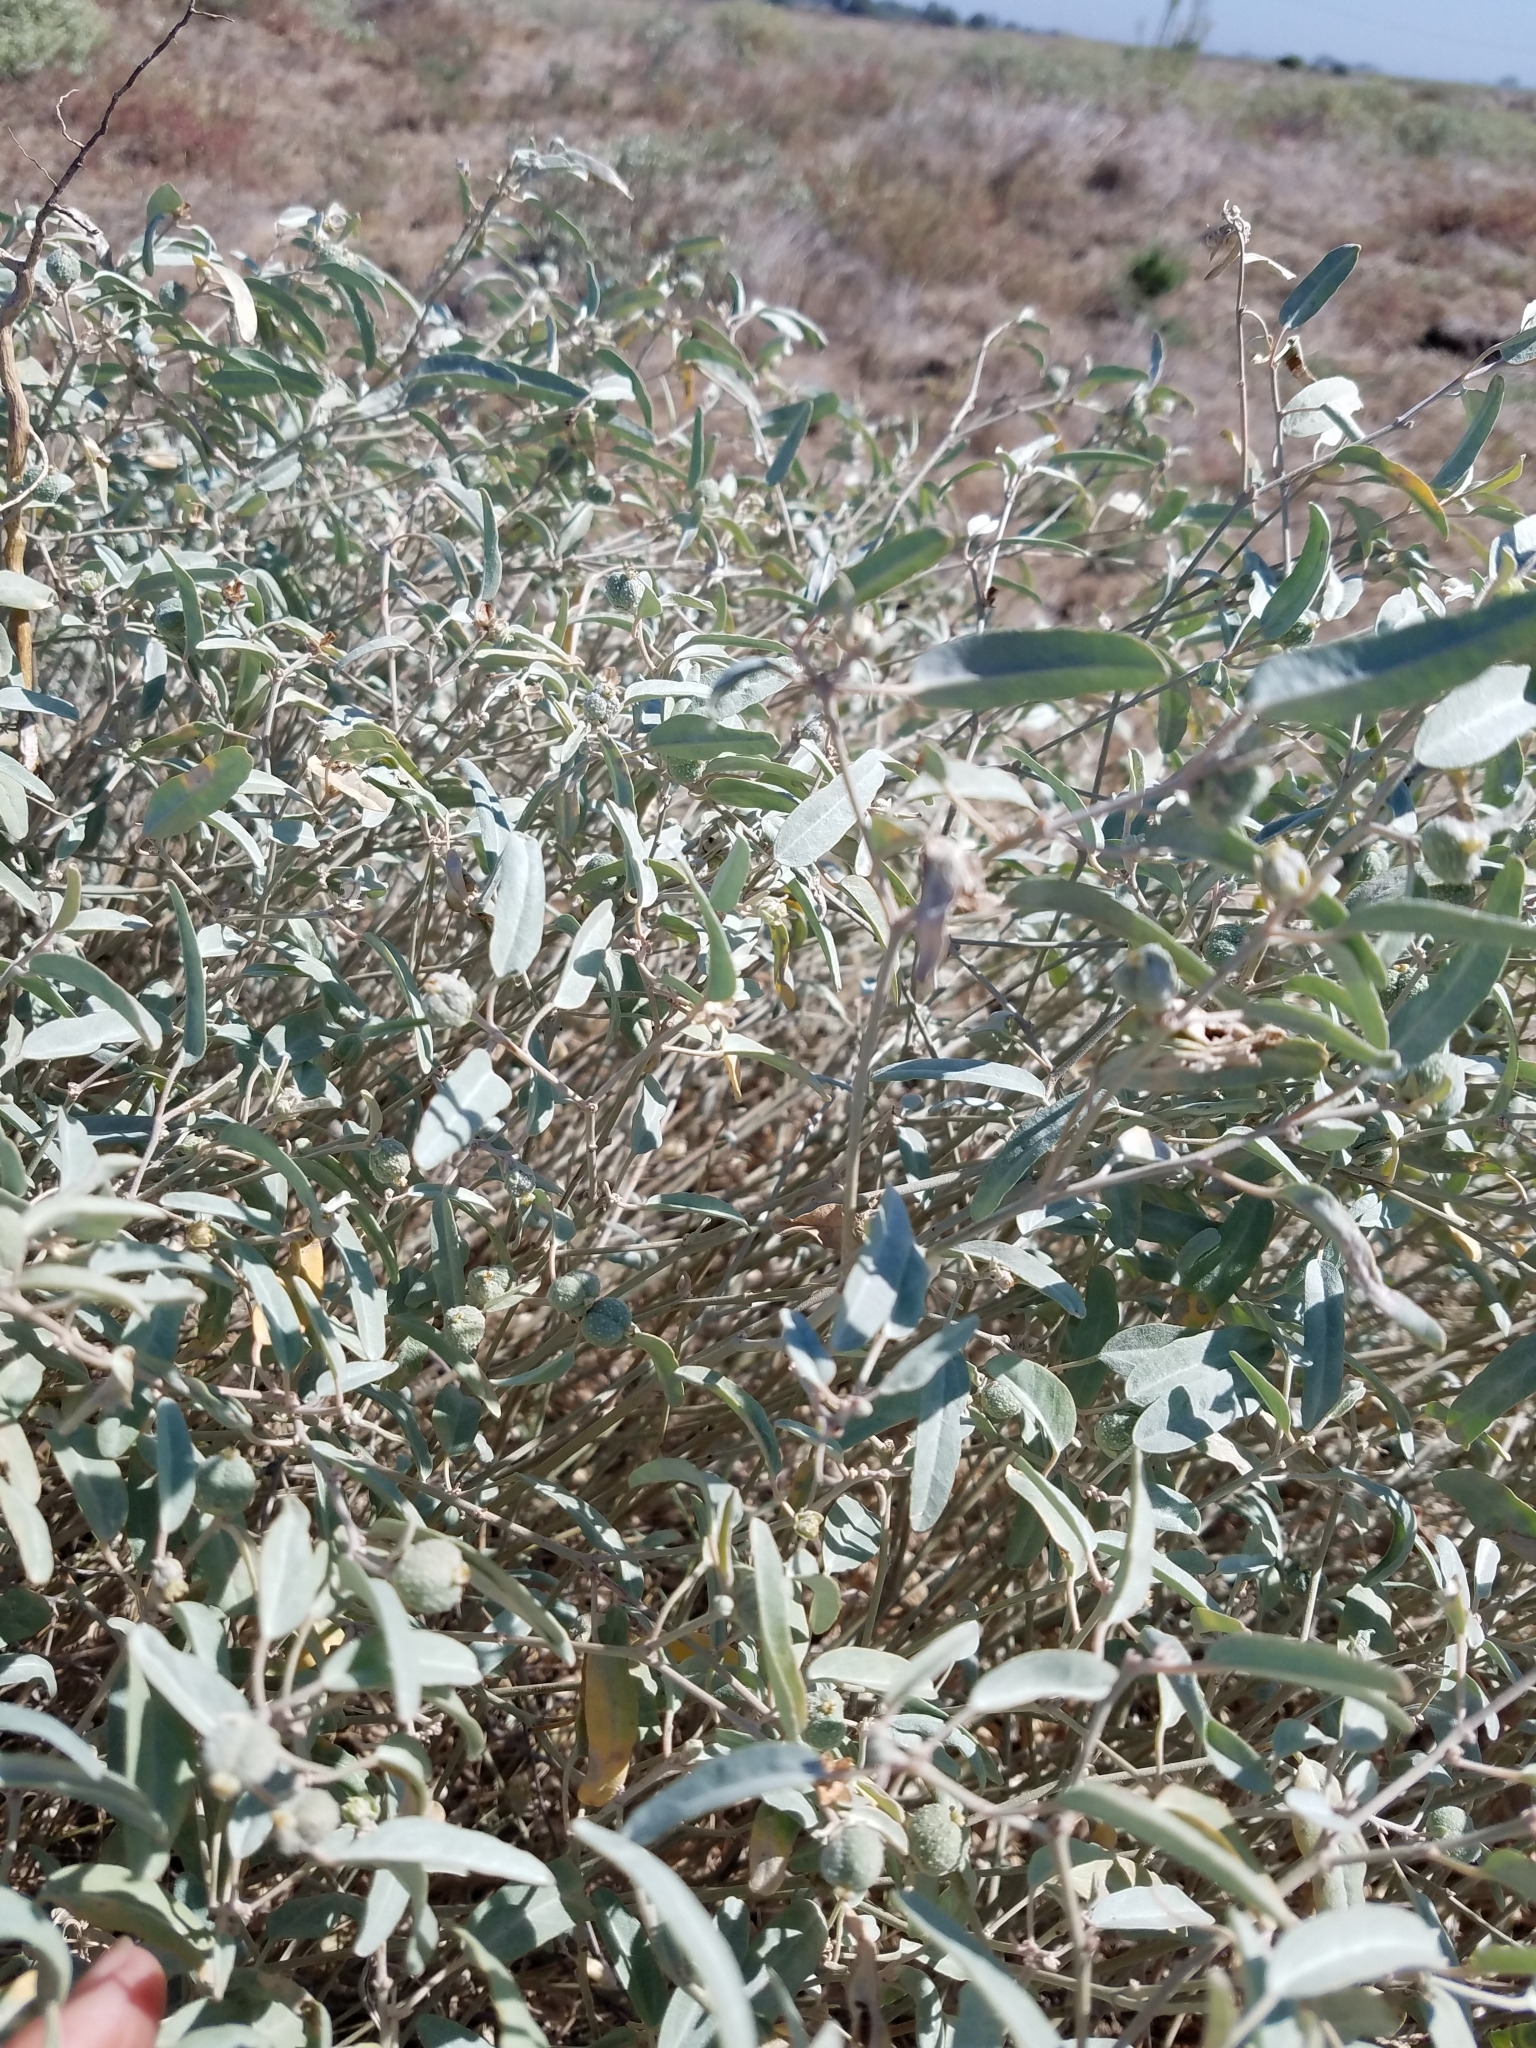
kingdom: Plantae
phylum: Tracheophyta
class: Magnoliopsida
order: Malpighiales
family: Euphorbiaceae
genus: Croton
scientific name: Croton californicus
